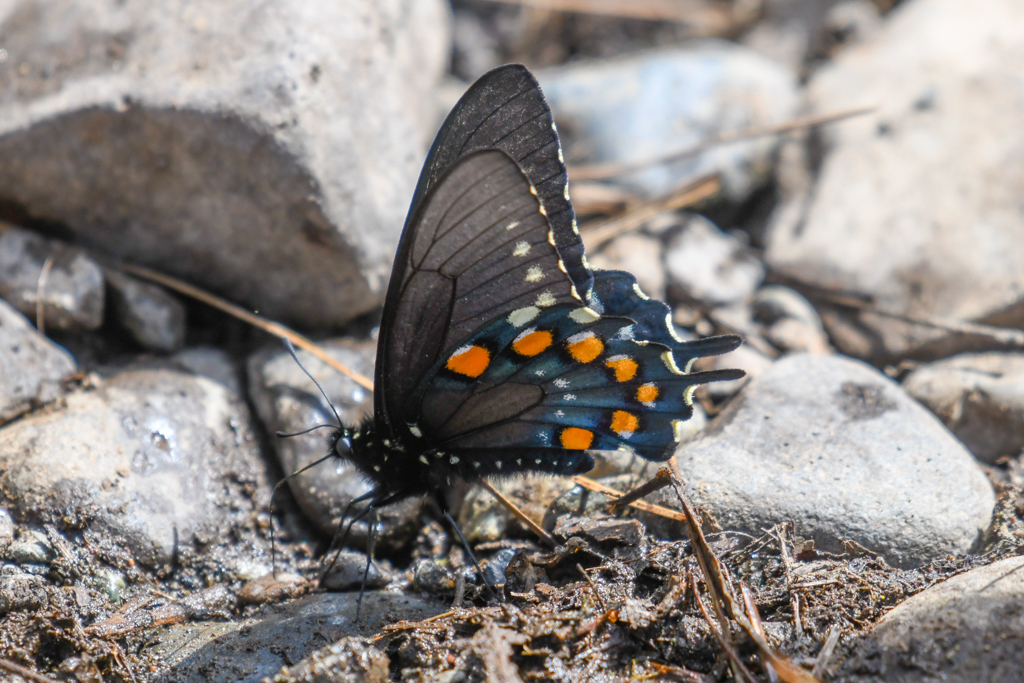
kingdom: Animalia
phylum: Arthropoda
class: Insecta
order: Lepidoptera
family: Papilionidae
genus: Battus
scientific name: Battus philenor
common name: Pipevine swallowtail
